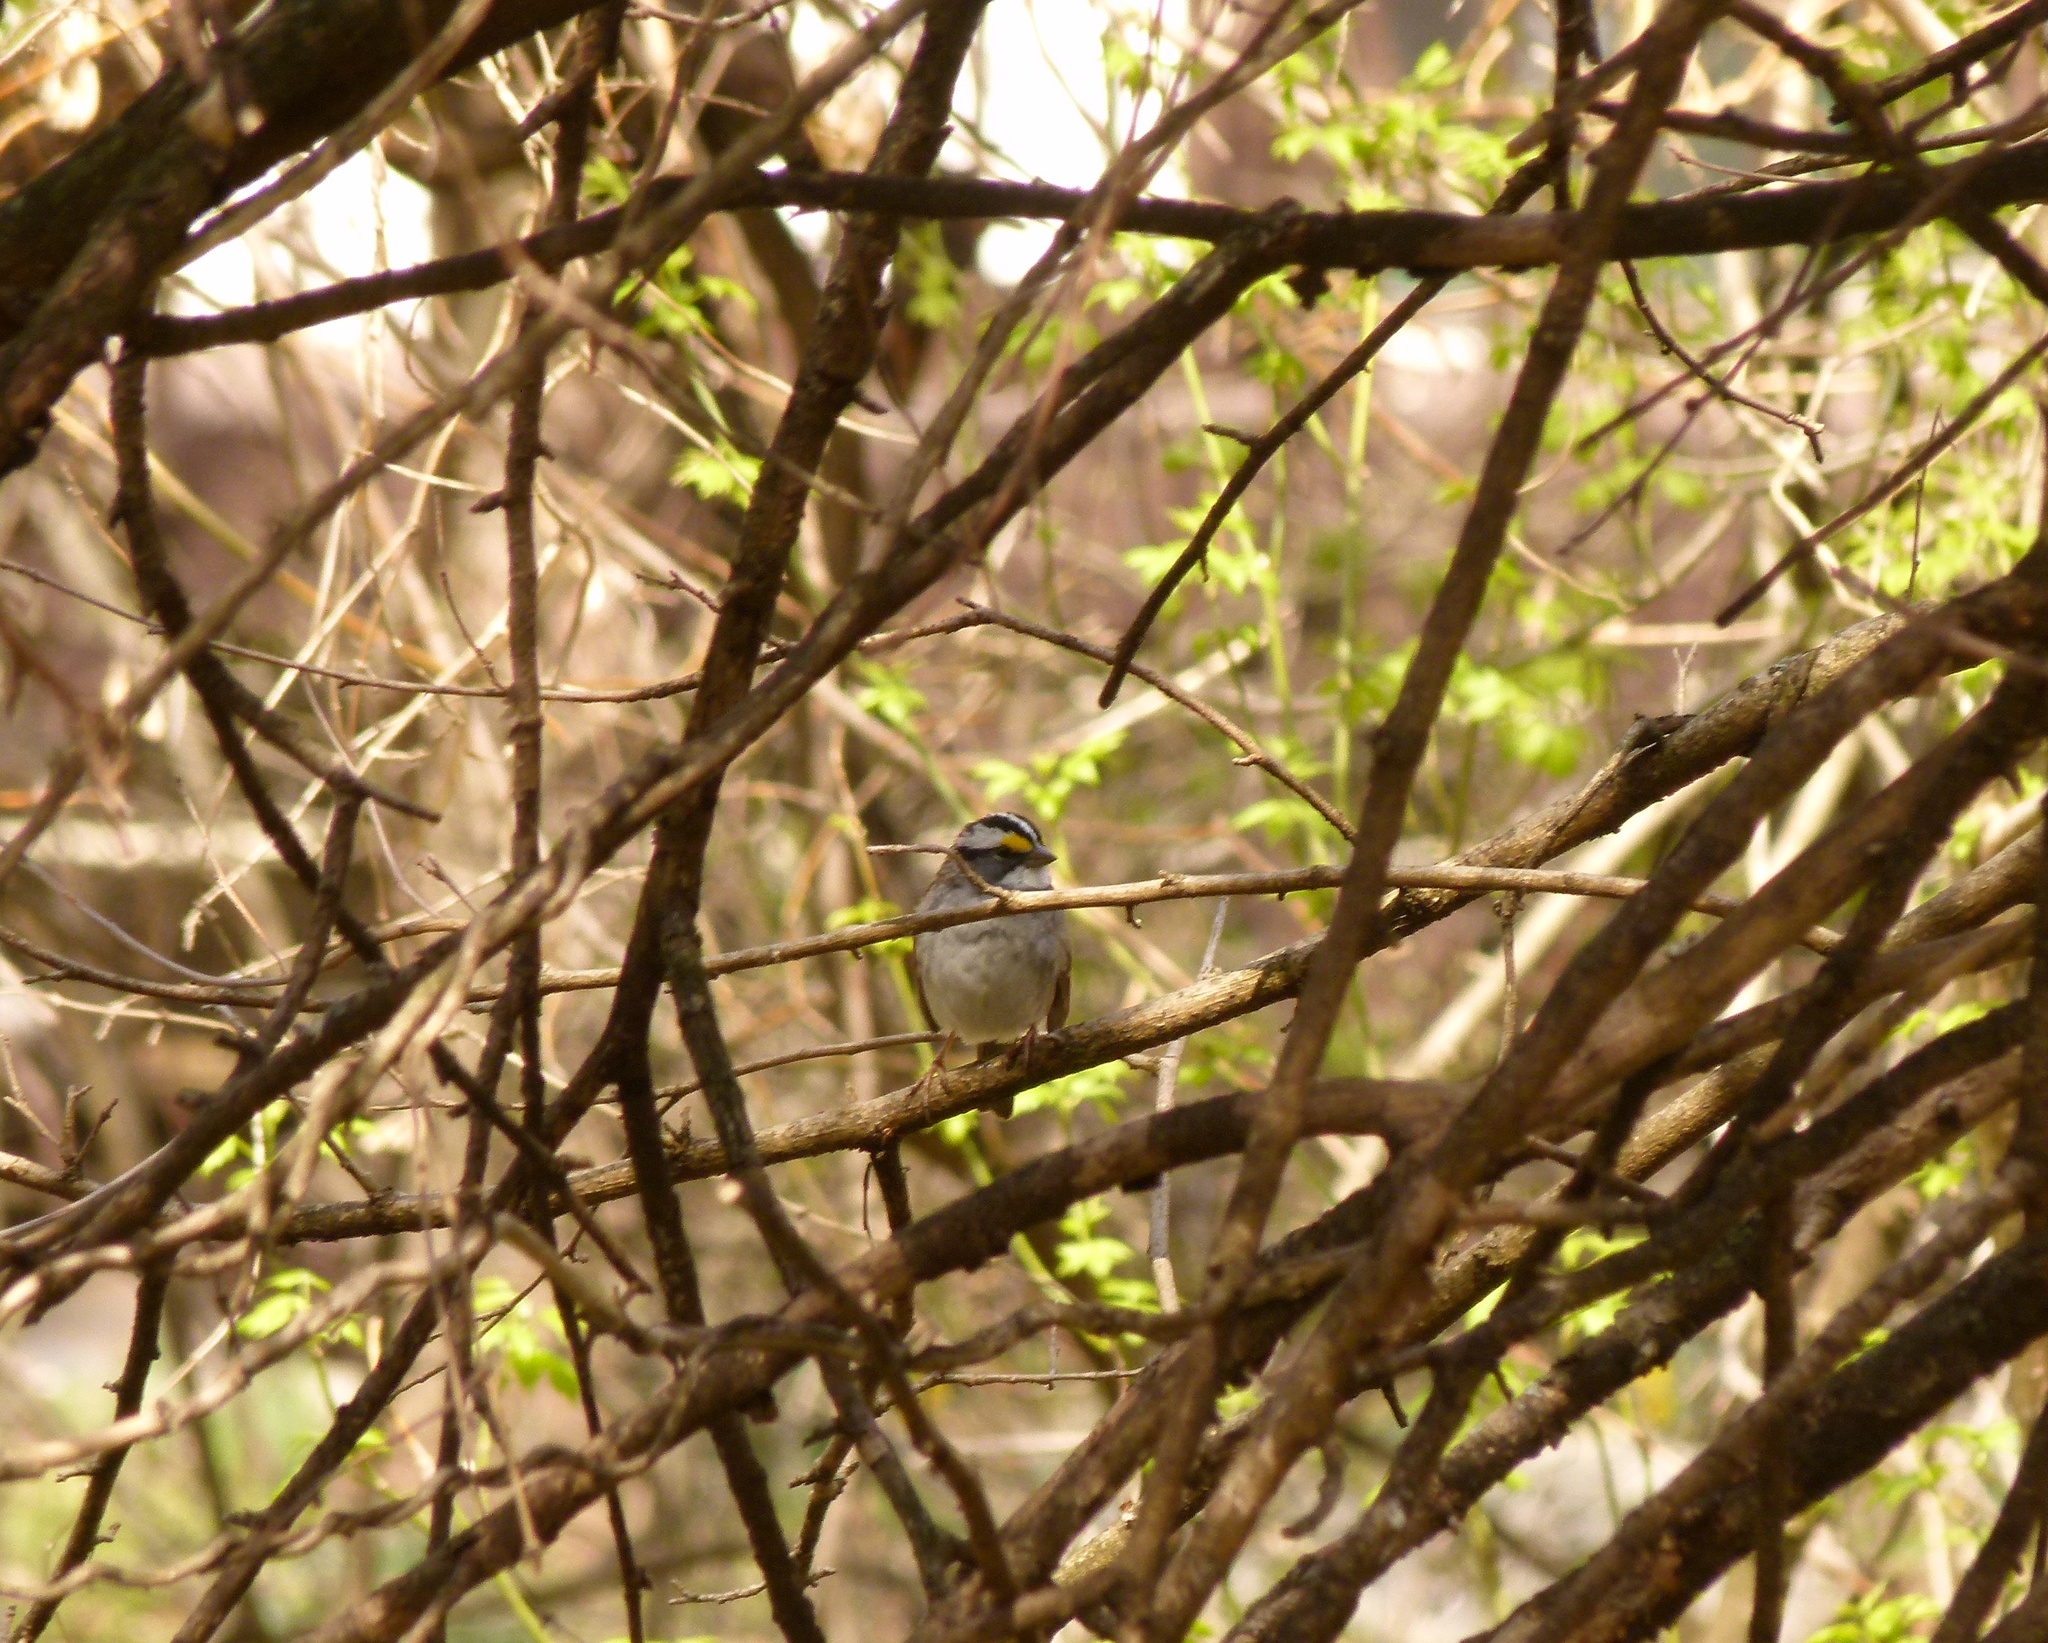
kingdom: Animalia
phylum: Chordata
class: Aves
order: Passeriformes
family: Passerellidae
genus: Zonotrichia
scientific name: Zonotrichia albicollis
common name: White-throated sparrow
